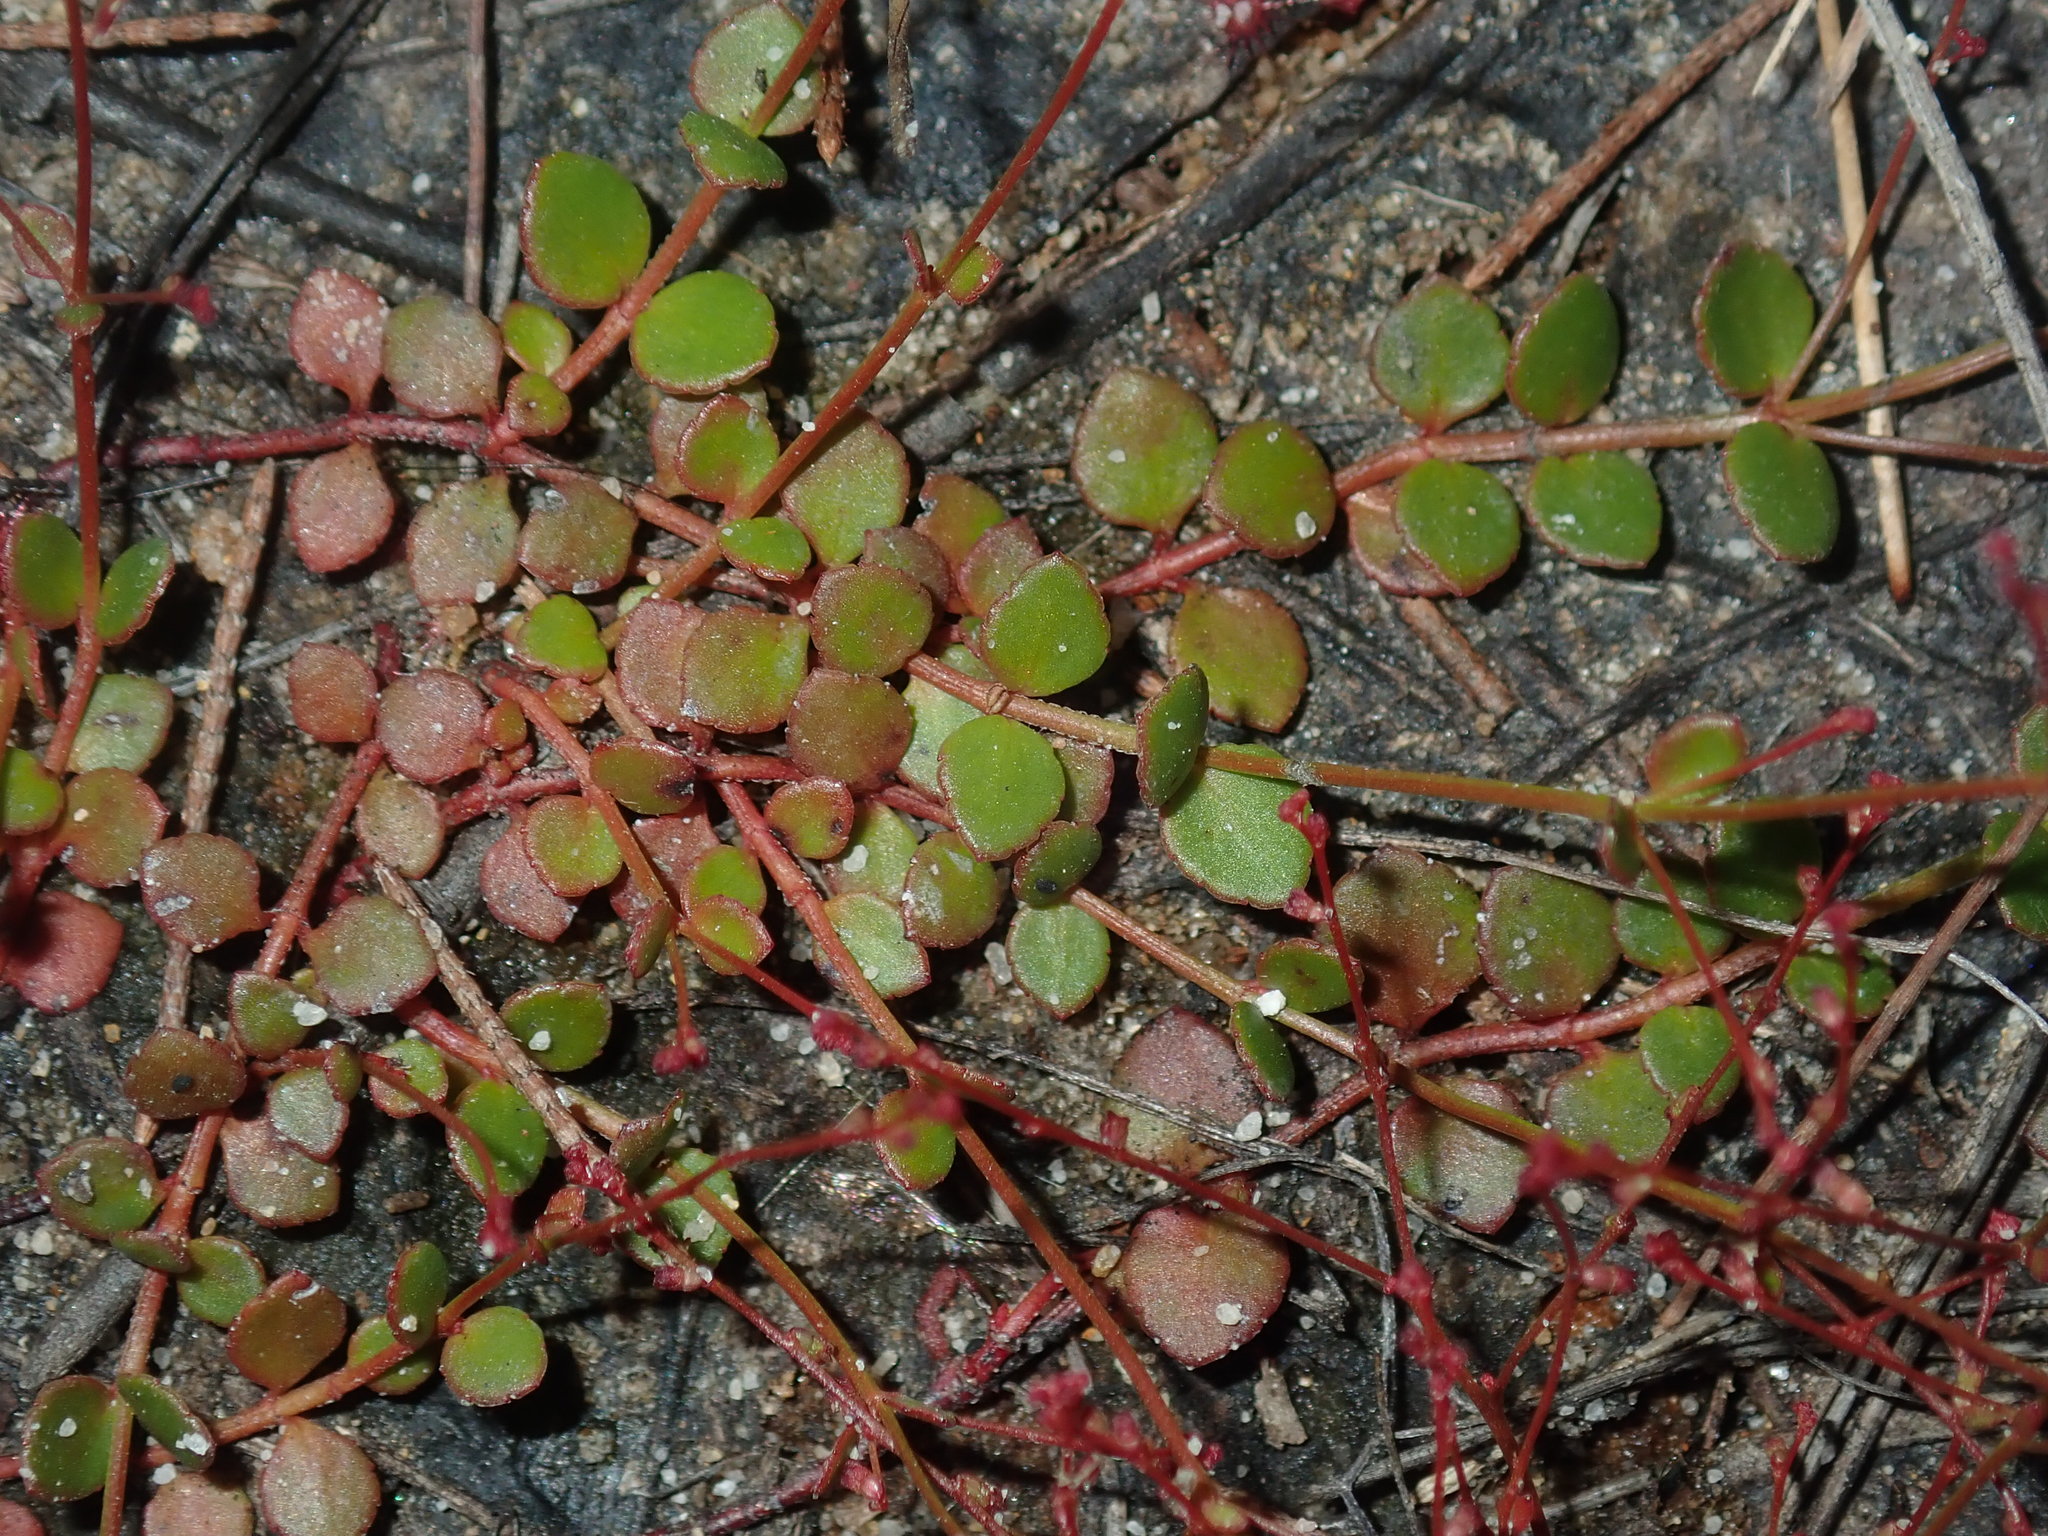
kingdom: Plantae
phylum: Tracheophyta
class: Magnoliopsida
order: Saxifragales
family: Haloragaceae
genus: Gonocarpus
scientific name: Gonocarpus micranthus
